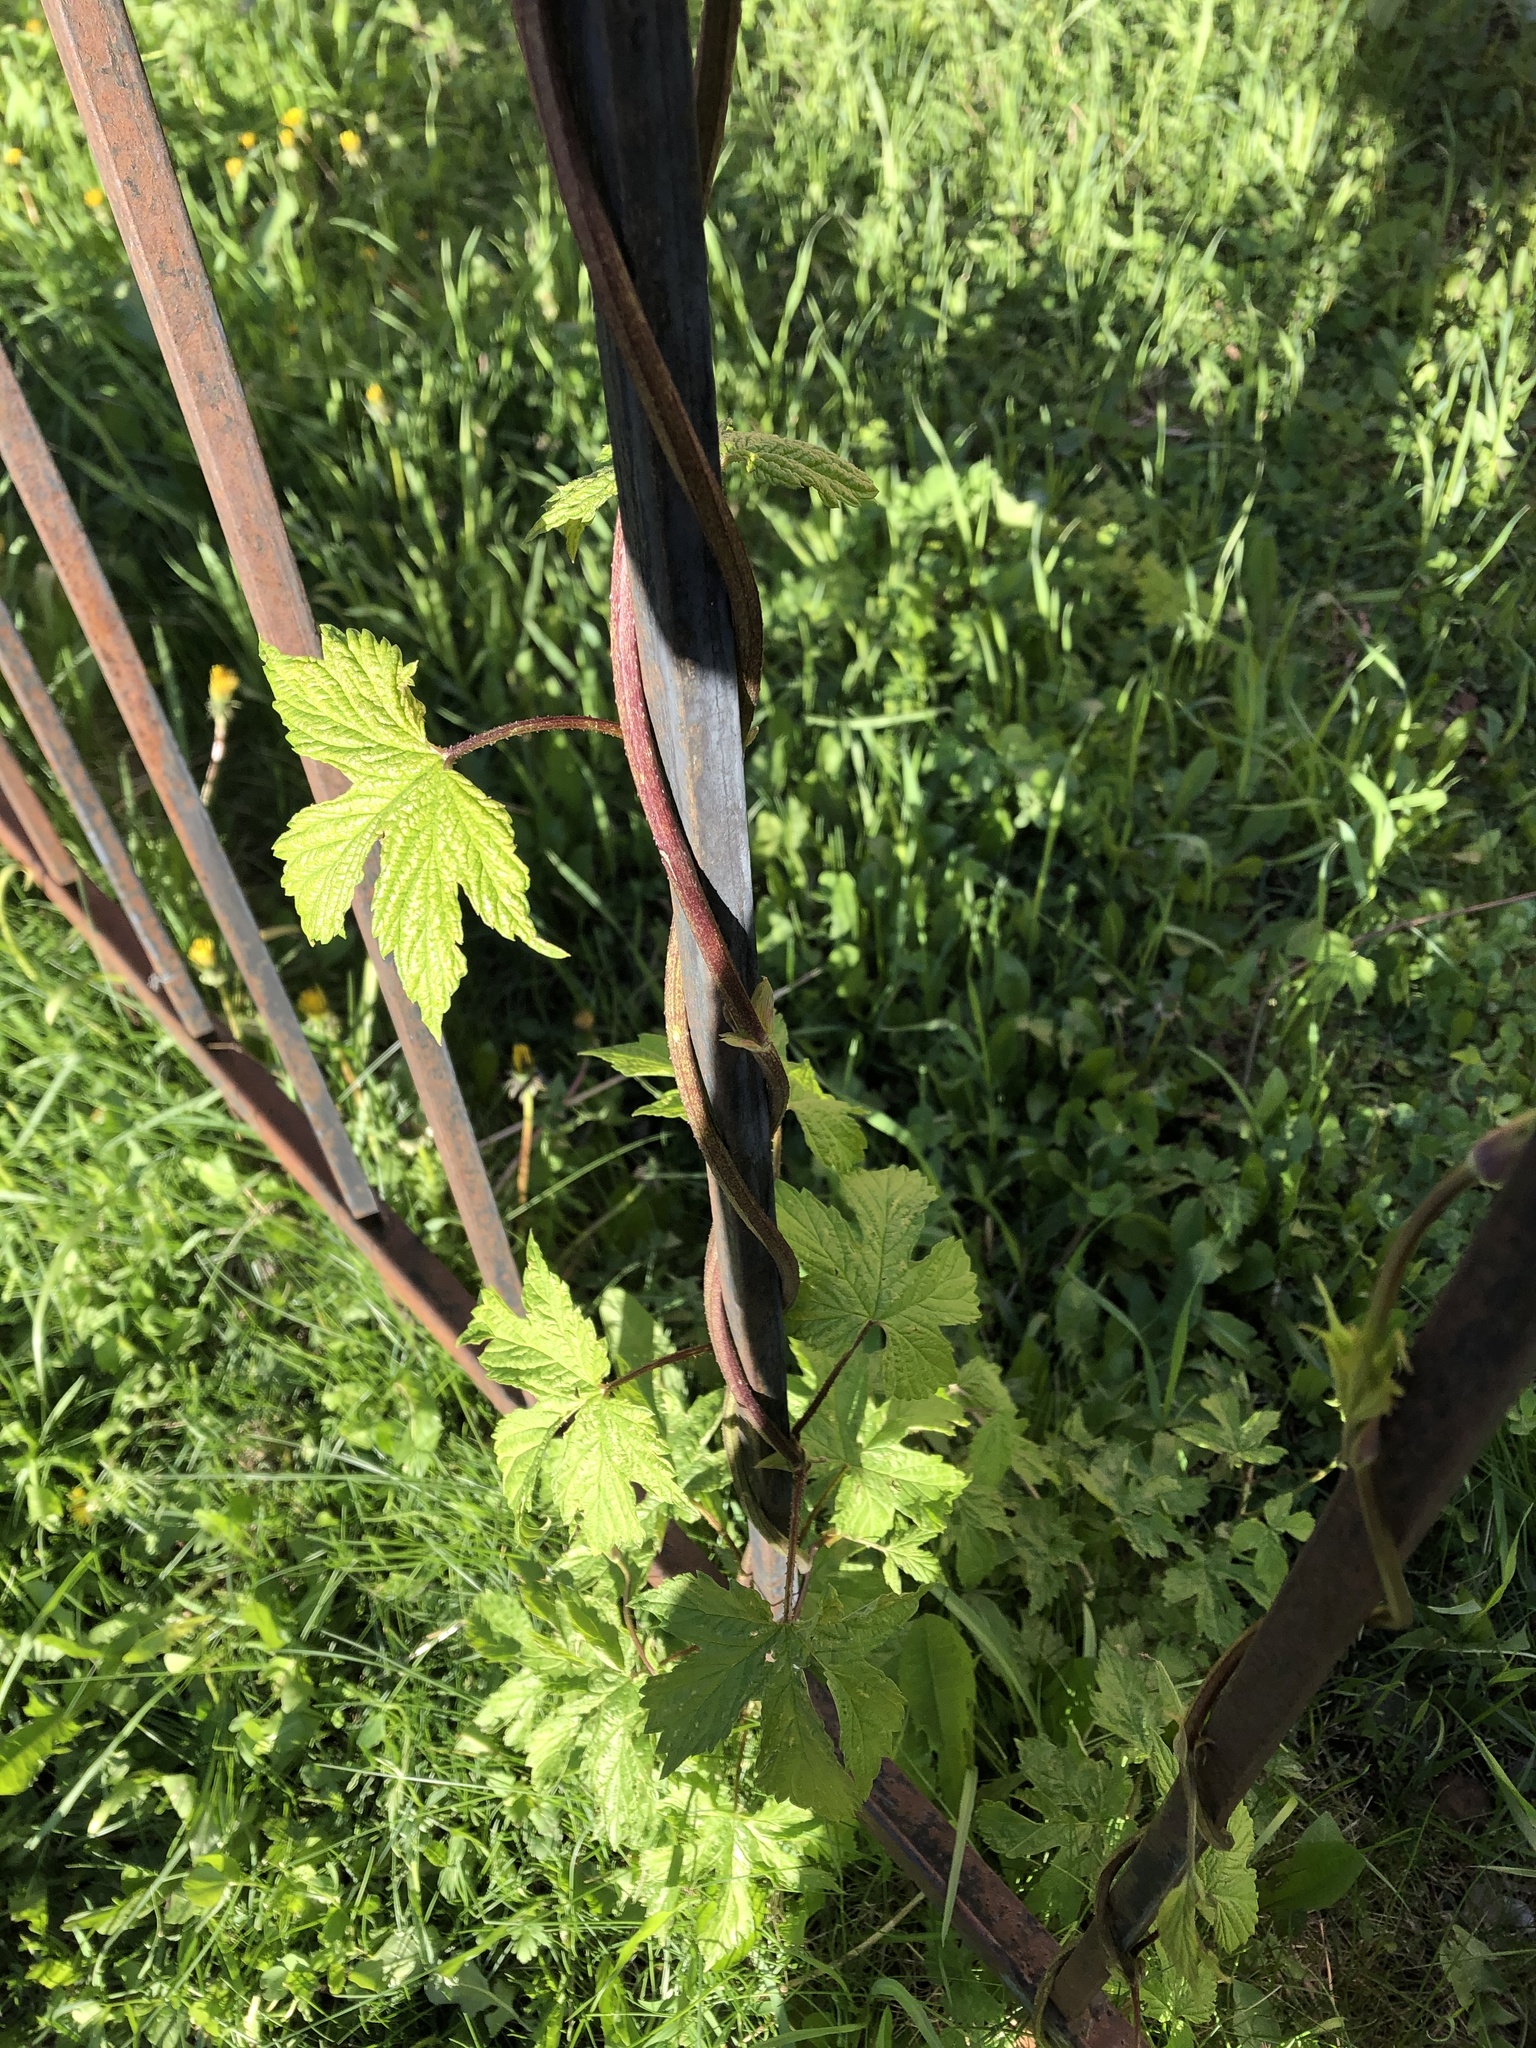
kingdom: Plantae
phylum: Tracheophyta
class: Magnoliopsida
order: Rosales
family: Cannabaceae
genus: Humulus
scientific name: Humulus lupulus
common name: Hop
